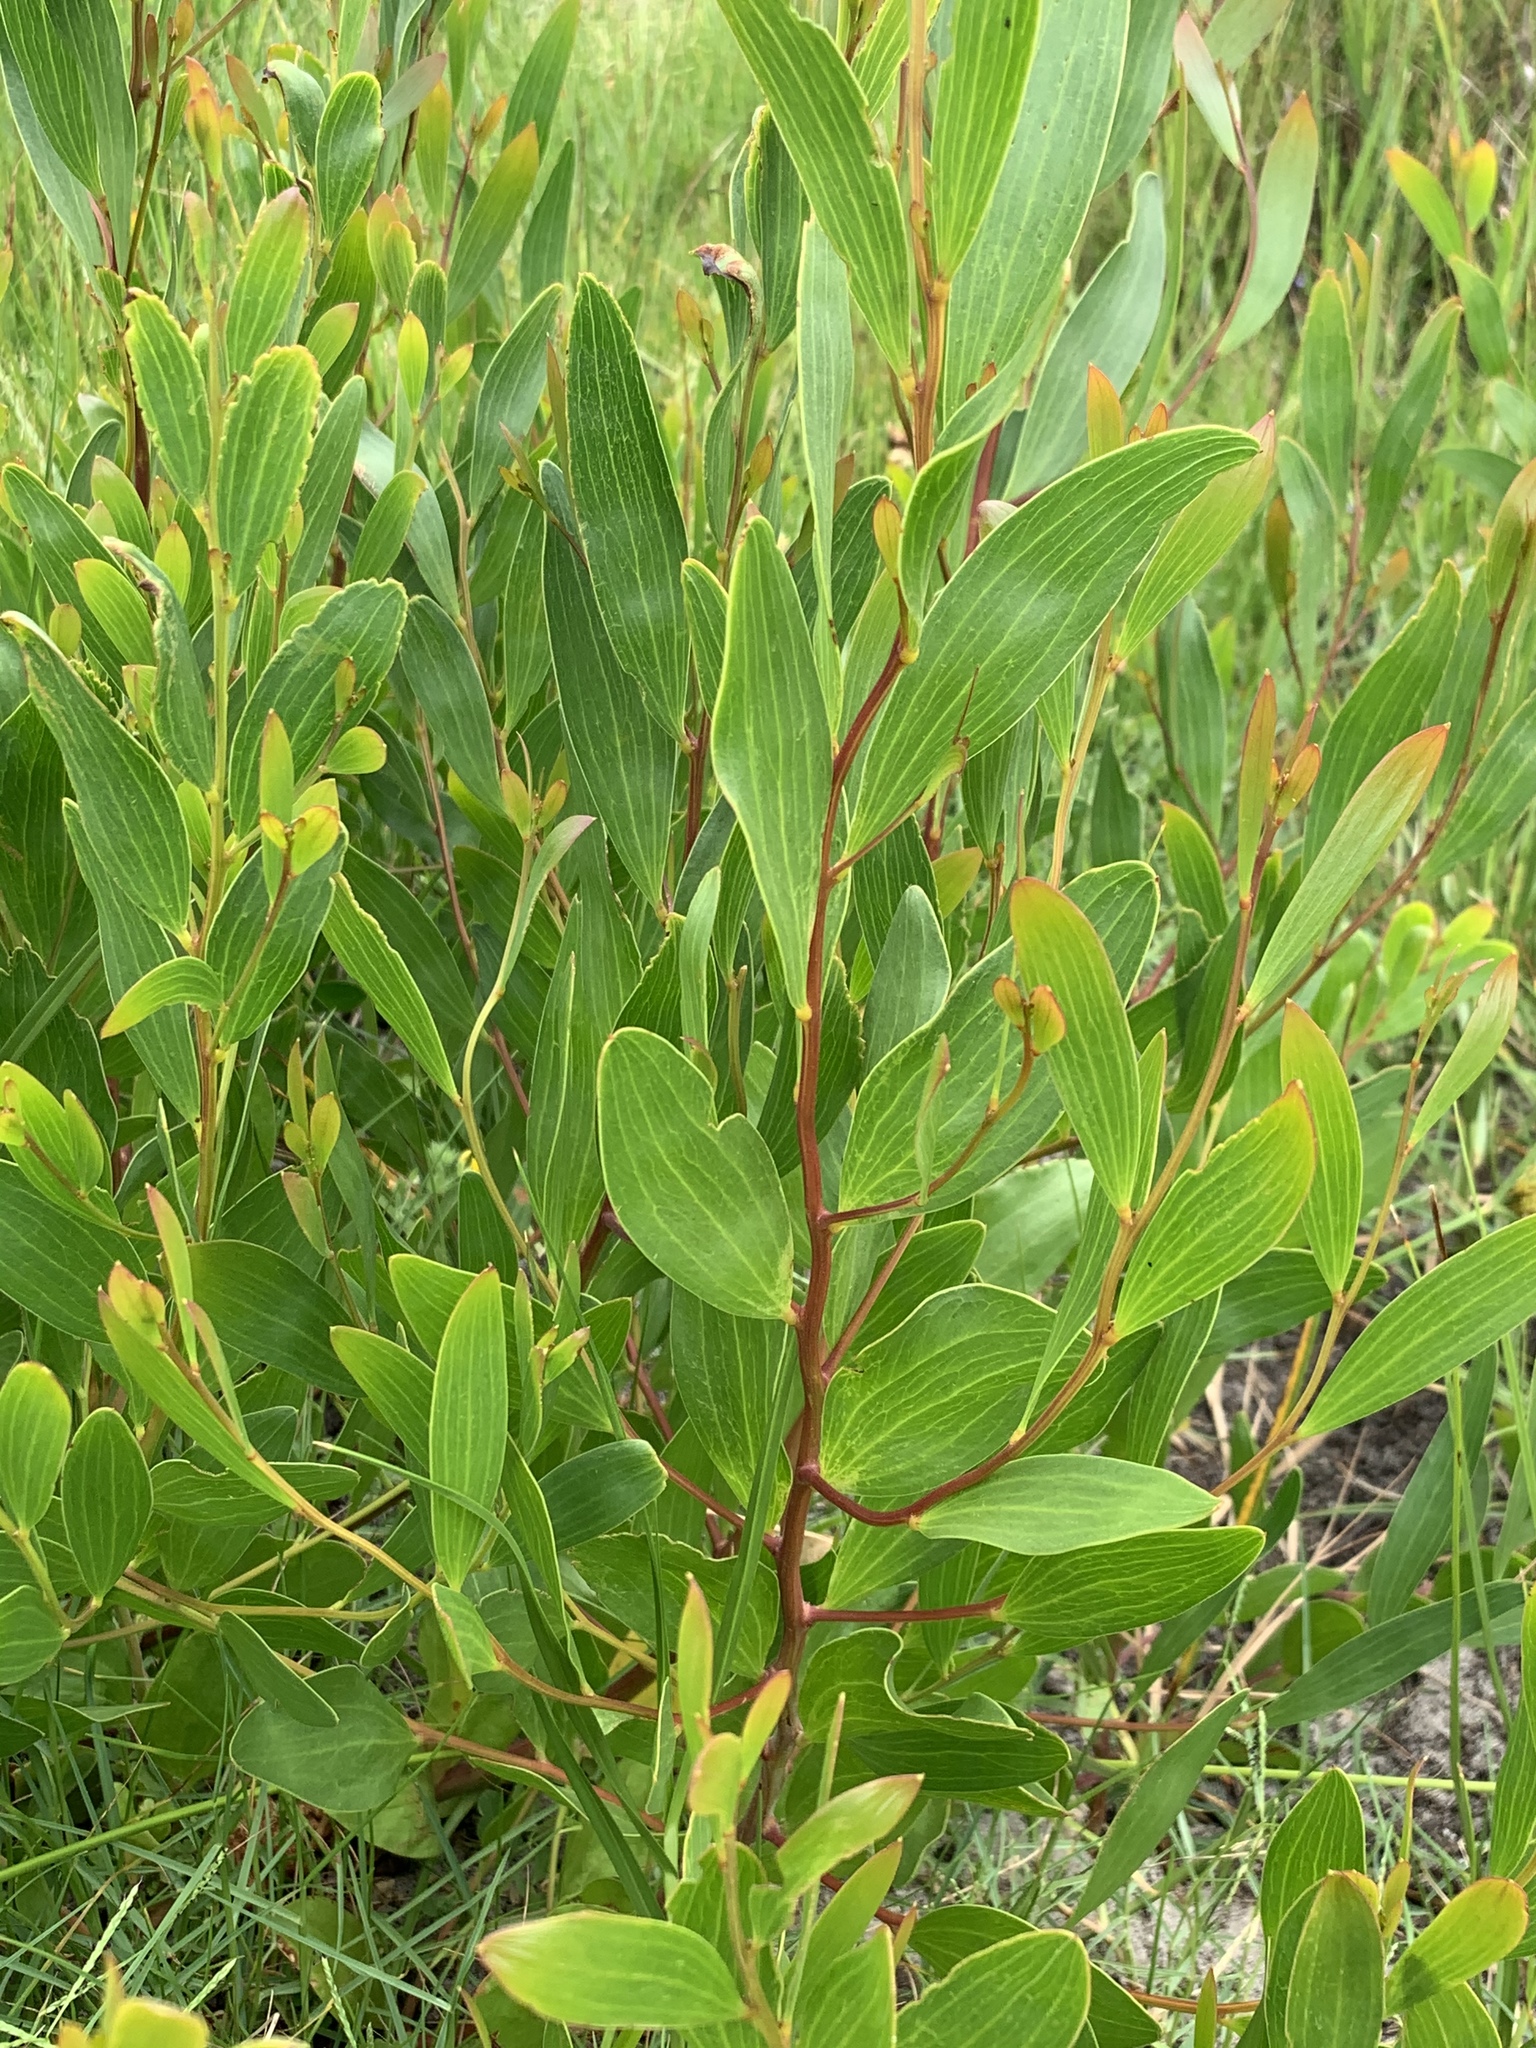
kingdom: Plantae
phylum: Tracheophyta
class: Magnoliopsida
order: Fabales
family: Fabaceae
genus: Acacia
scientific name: Acacia cyclops
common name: Coastal wattle
